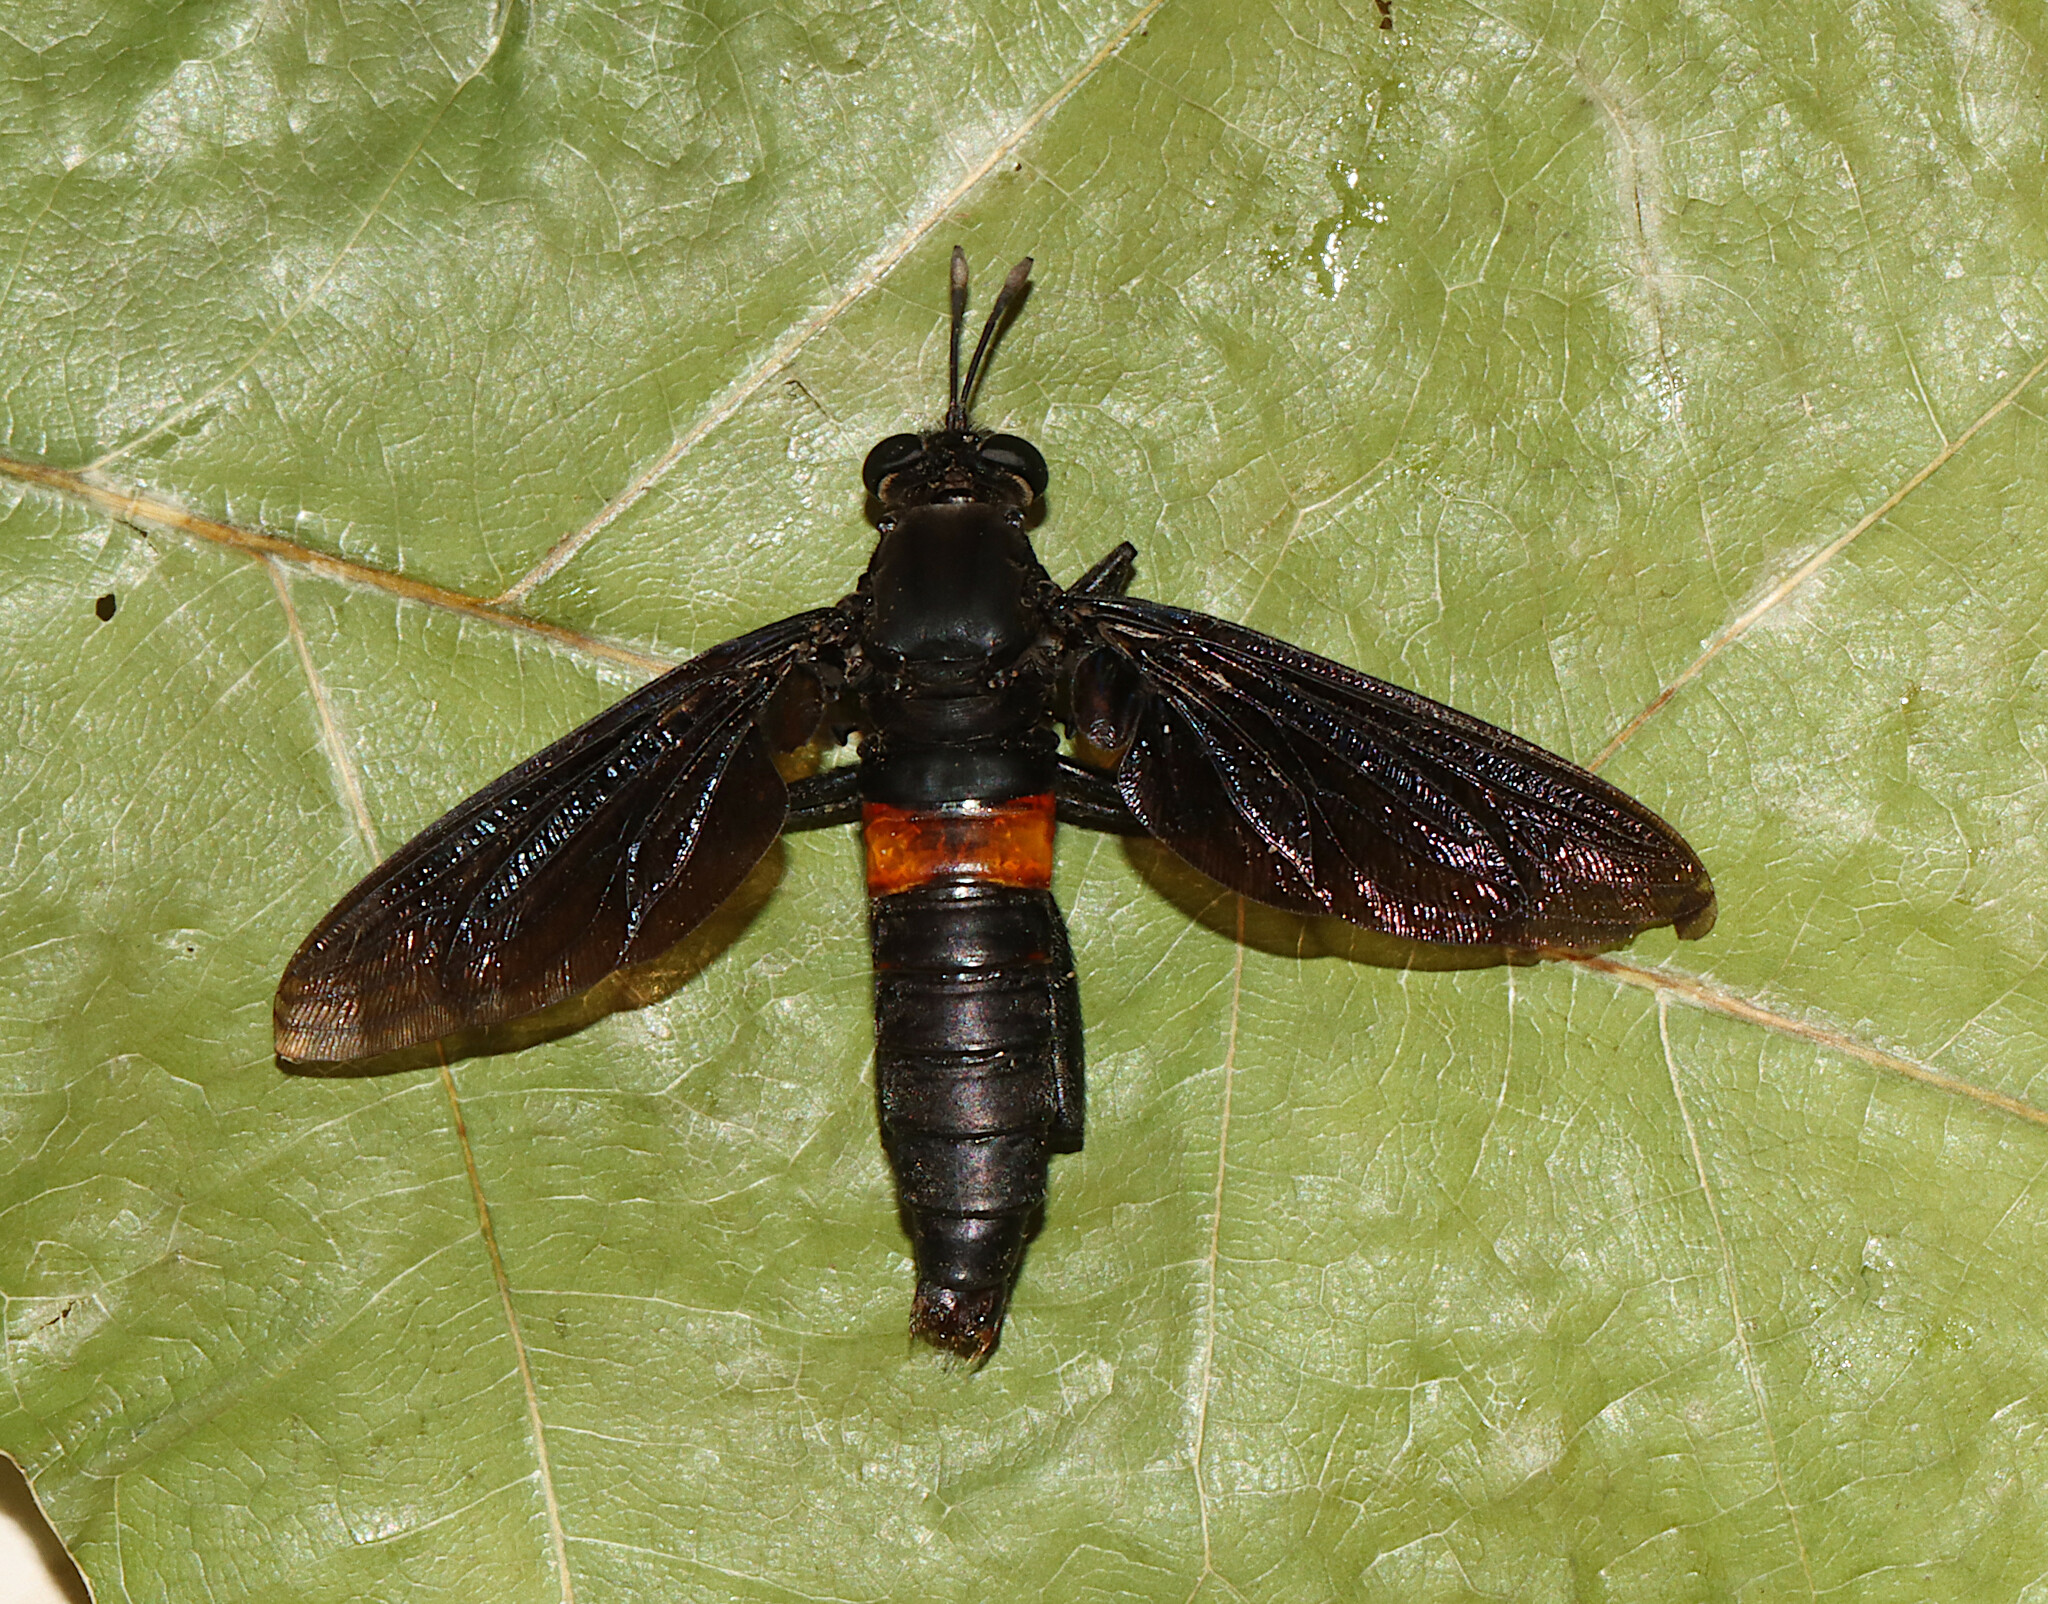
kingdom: Animalia
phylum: Arthropoda
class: Insecta
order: Diptera
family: Mydidae
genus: Mydas
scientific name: Mydas clavatus
